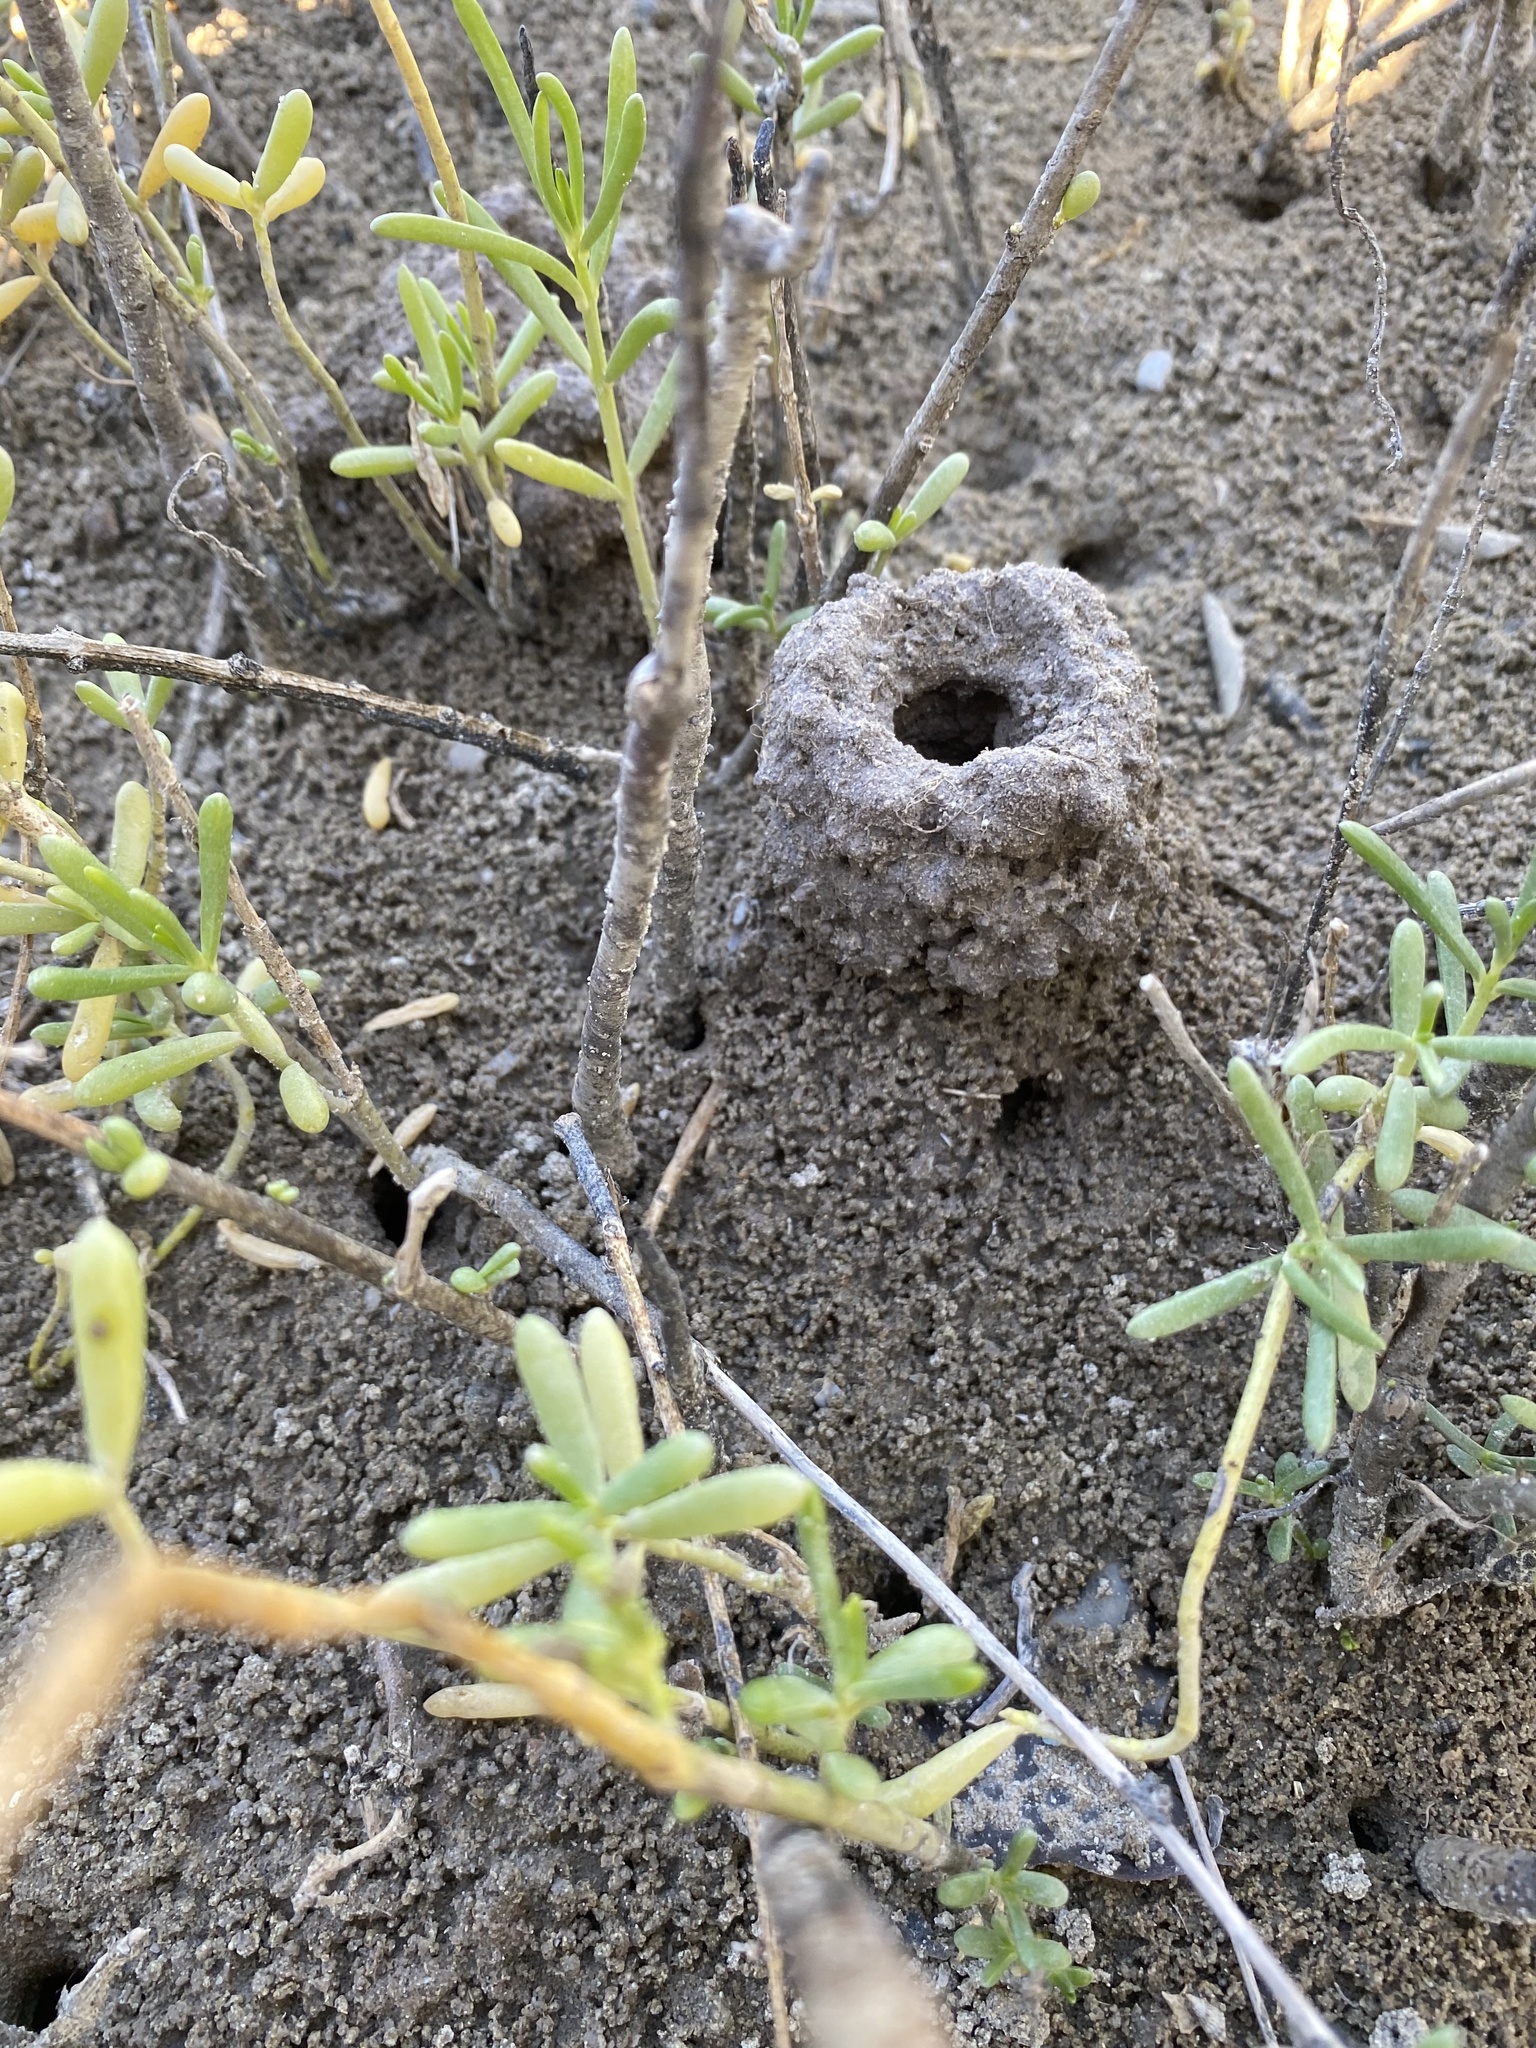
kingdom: Plantae
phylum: Tracheophyta
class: Magnoliopsida
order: Brassicales
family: Bataceae
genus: Batis
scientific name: Batis maritima
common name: Turtleweed
